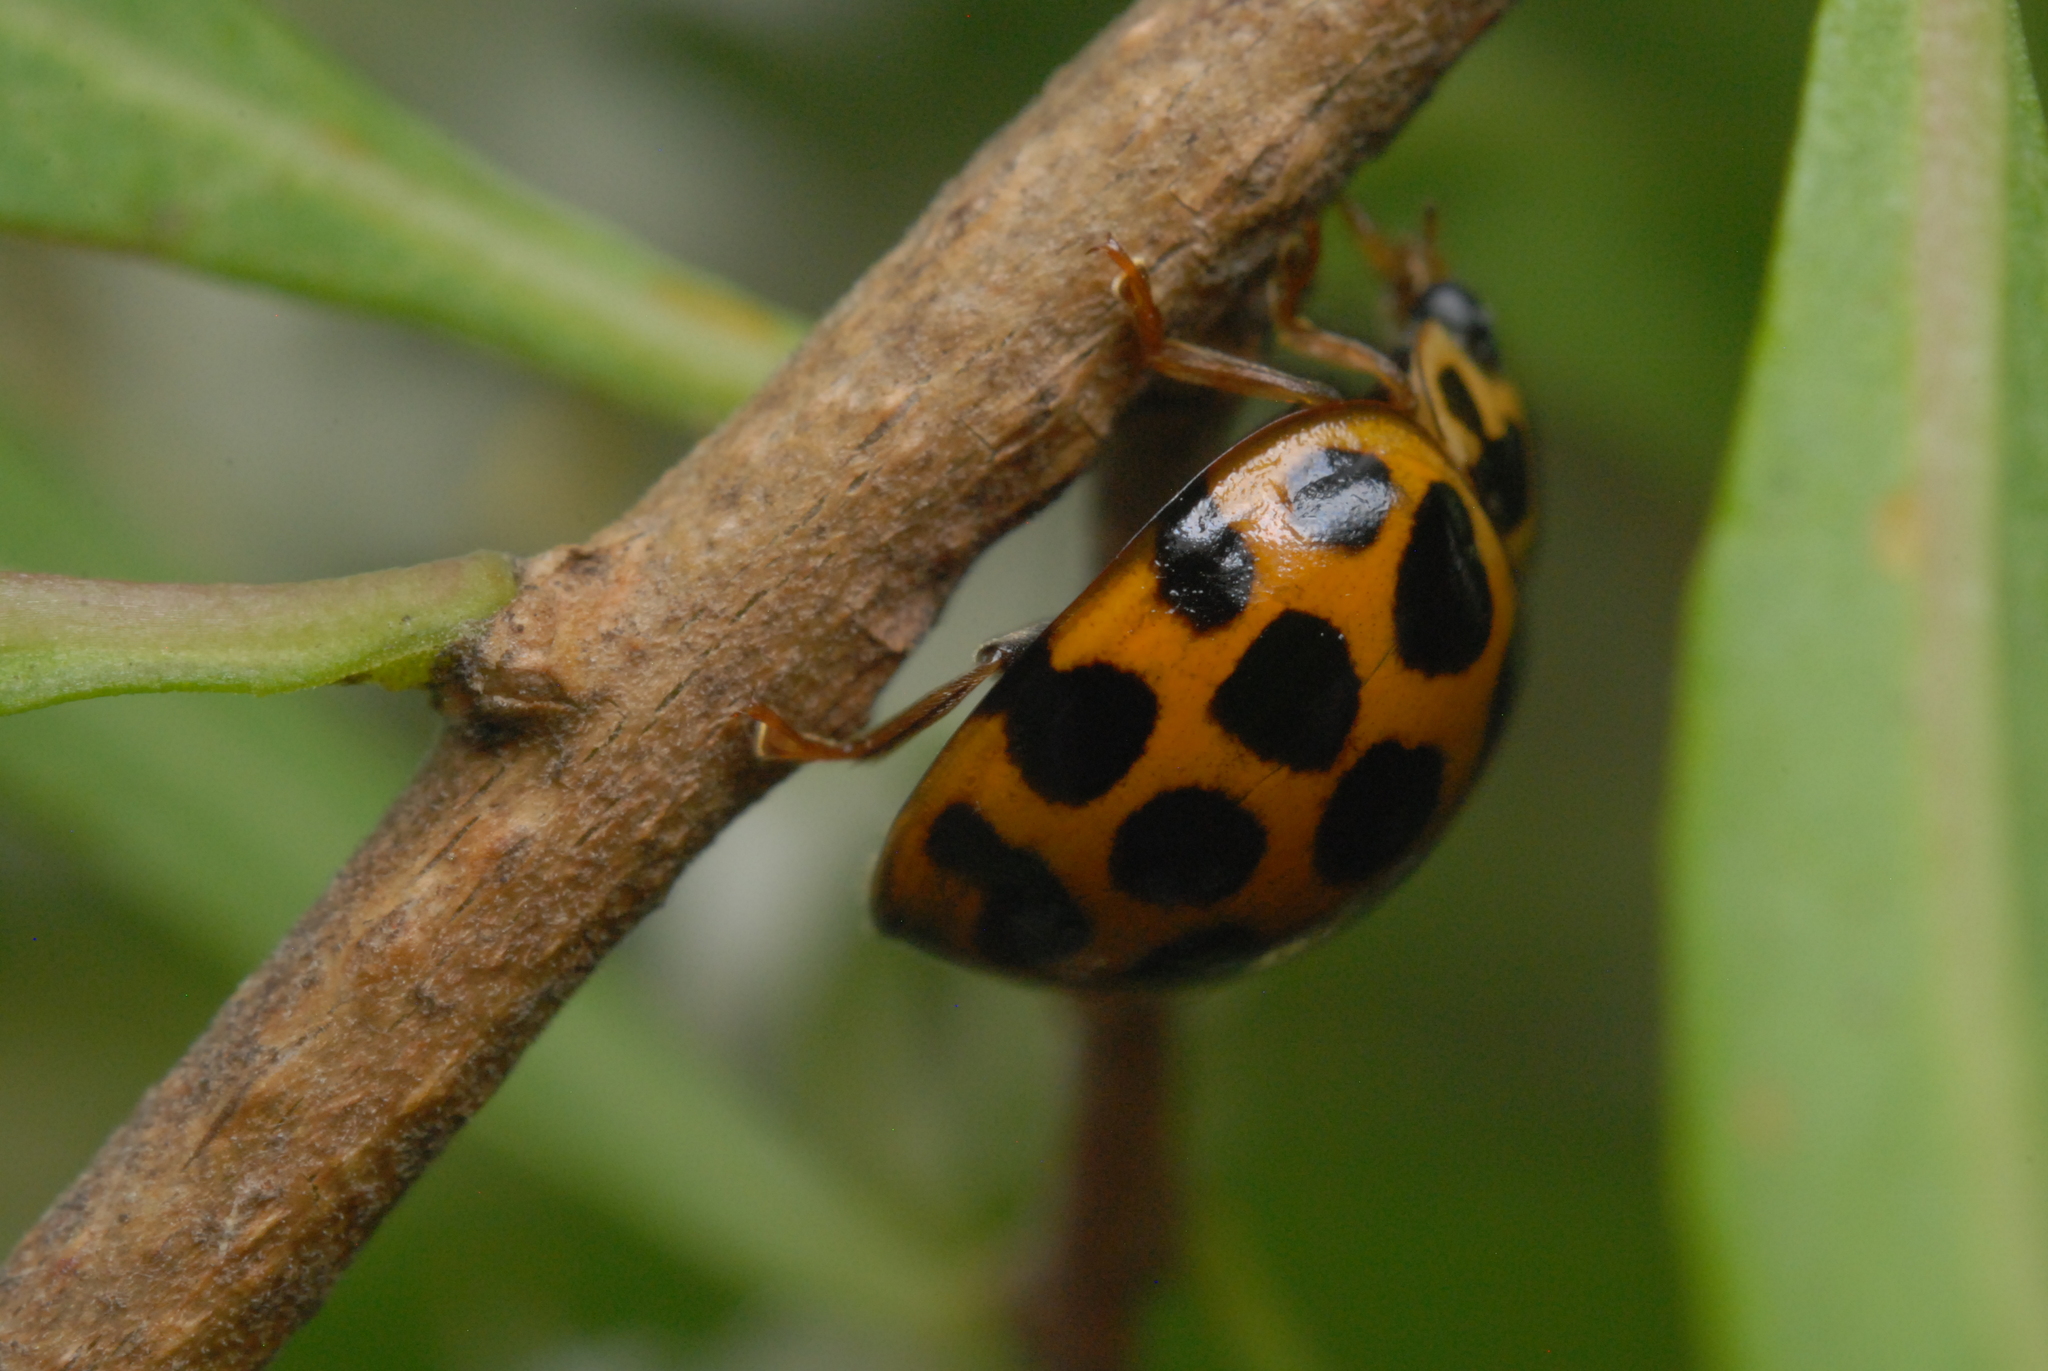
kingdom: Animalia
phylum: Arthropoda
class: Insecta
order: Coleoptera
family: Coccinellidae
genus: Harmonia
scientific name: Harmonia conformis
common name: Common spotted ladybird beetle
